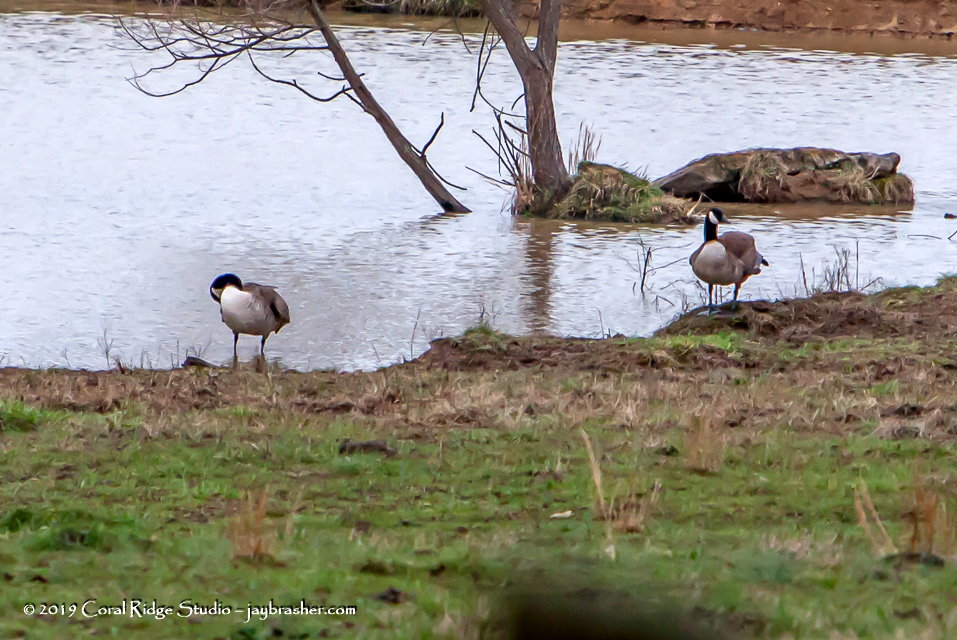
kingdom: Animalia
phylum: Chordata
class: Aves
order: Anseriformes
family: Anatidae
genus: Branta
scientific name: Branta canadensis
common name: Canada goose
